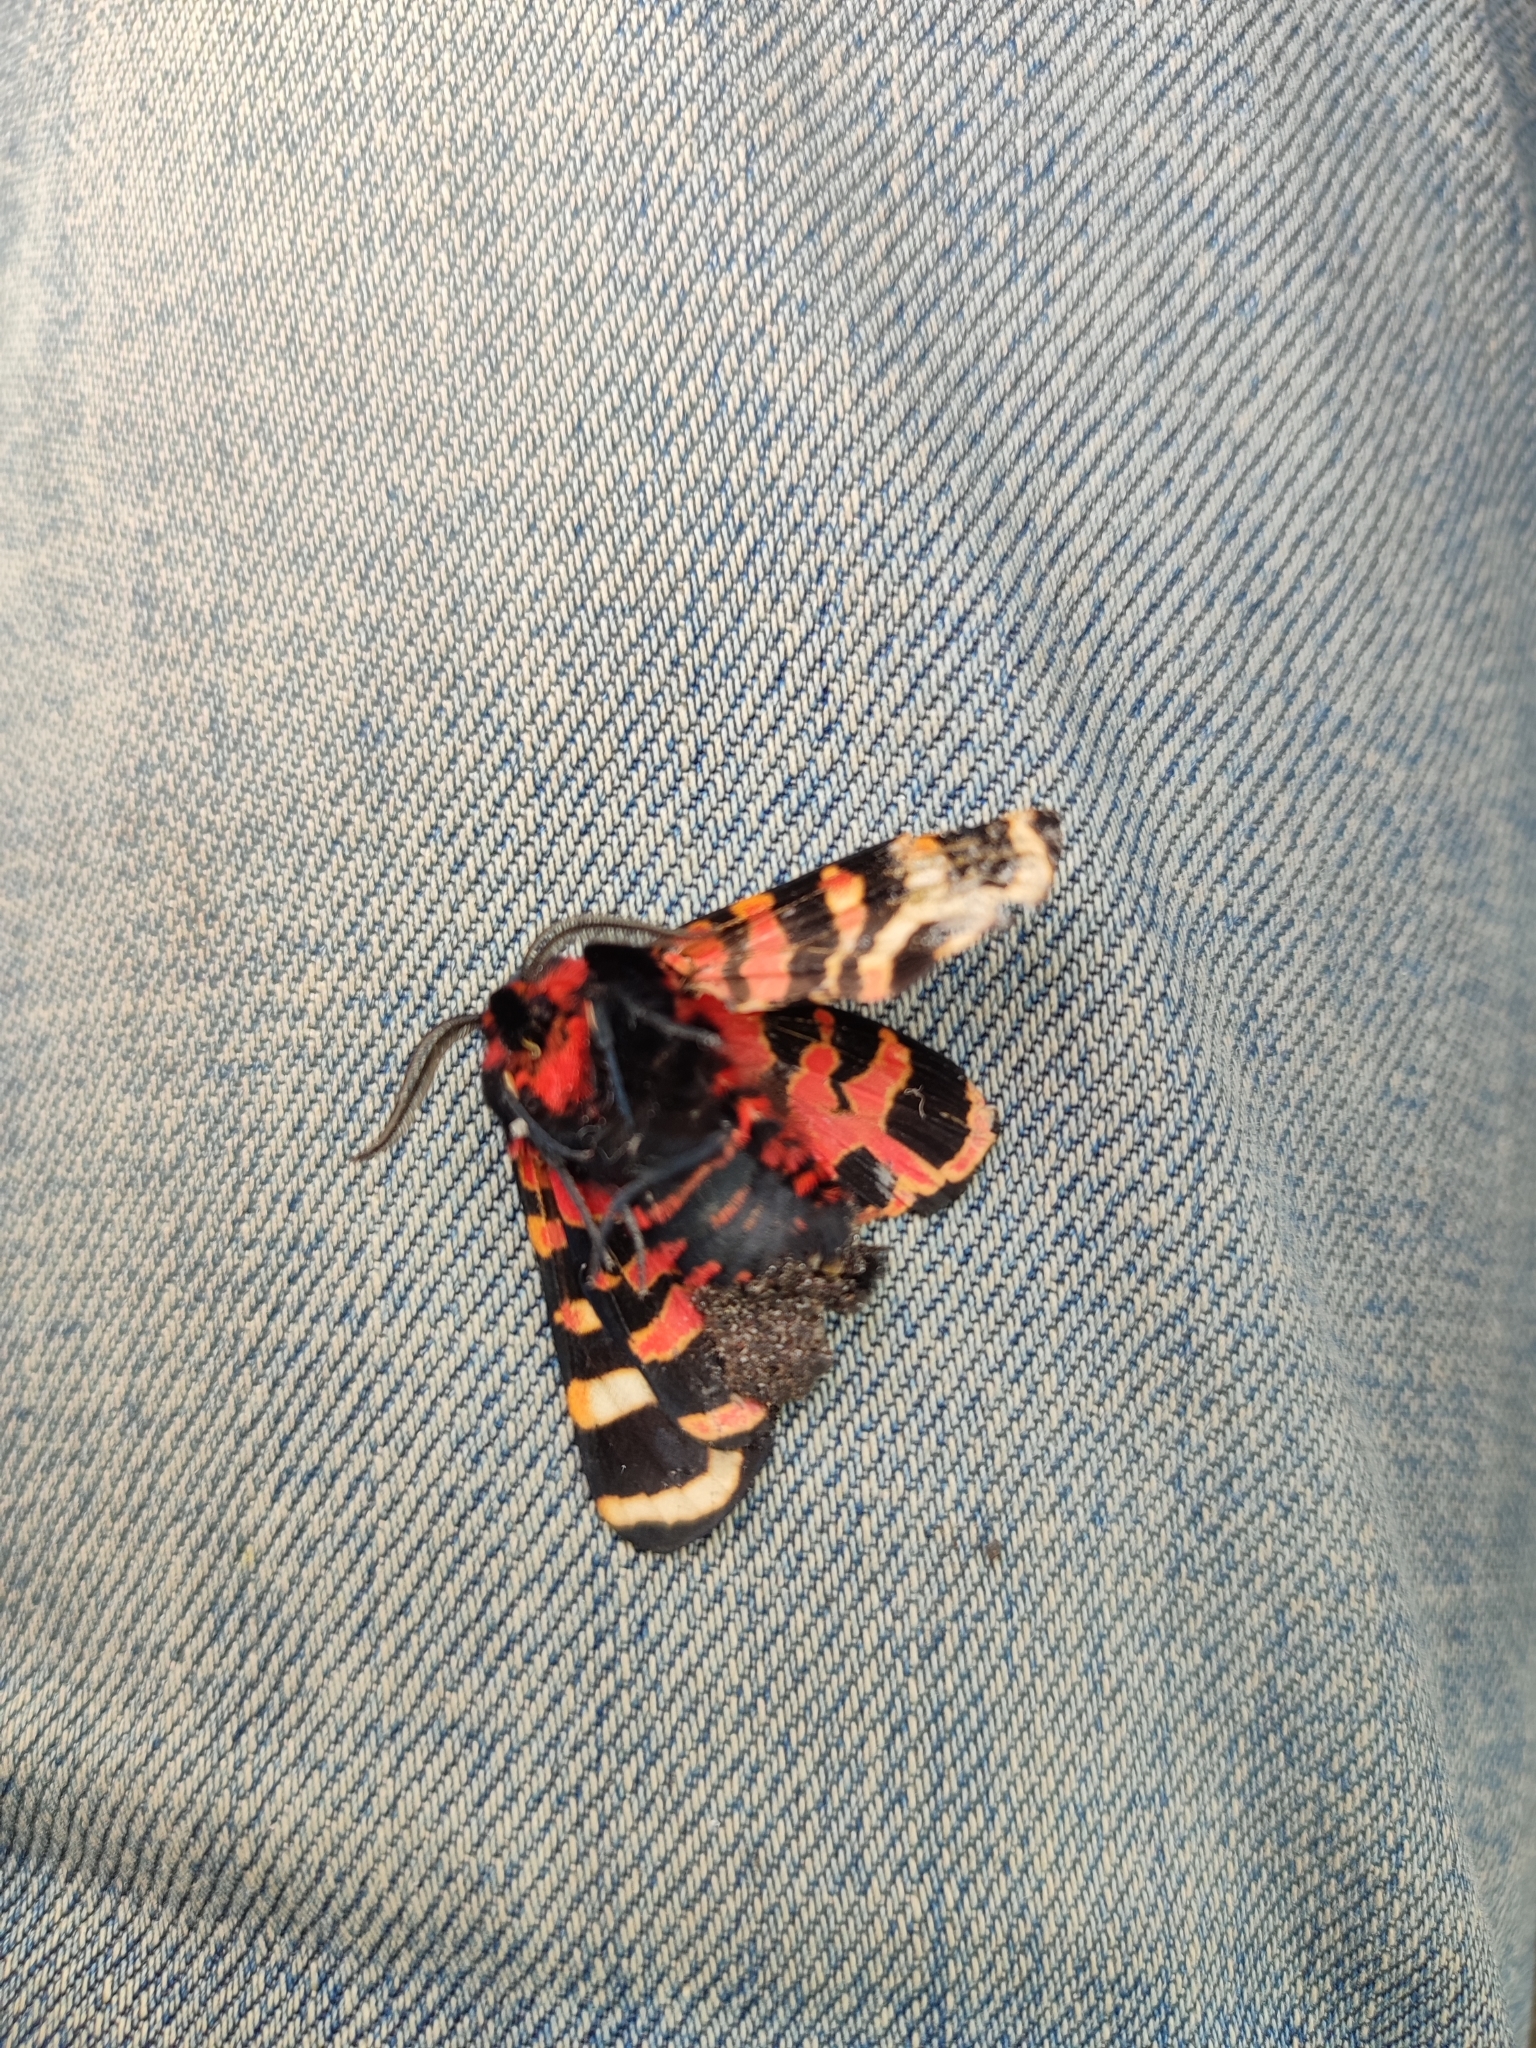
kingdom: Animalia
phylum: Arthropoda
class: Insecta
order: Lepidoptera
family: Erebidae
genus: Eucharia
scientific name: Eucharia festiva
